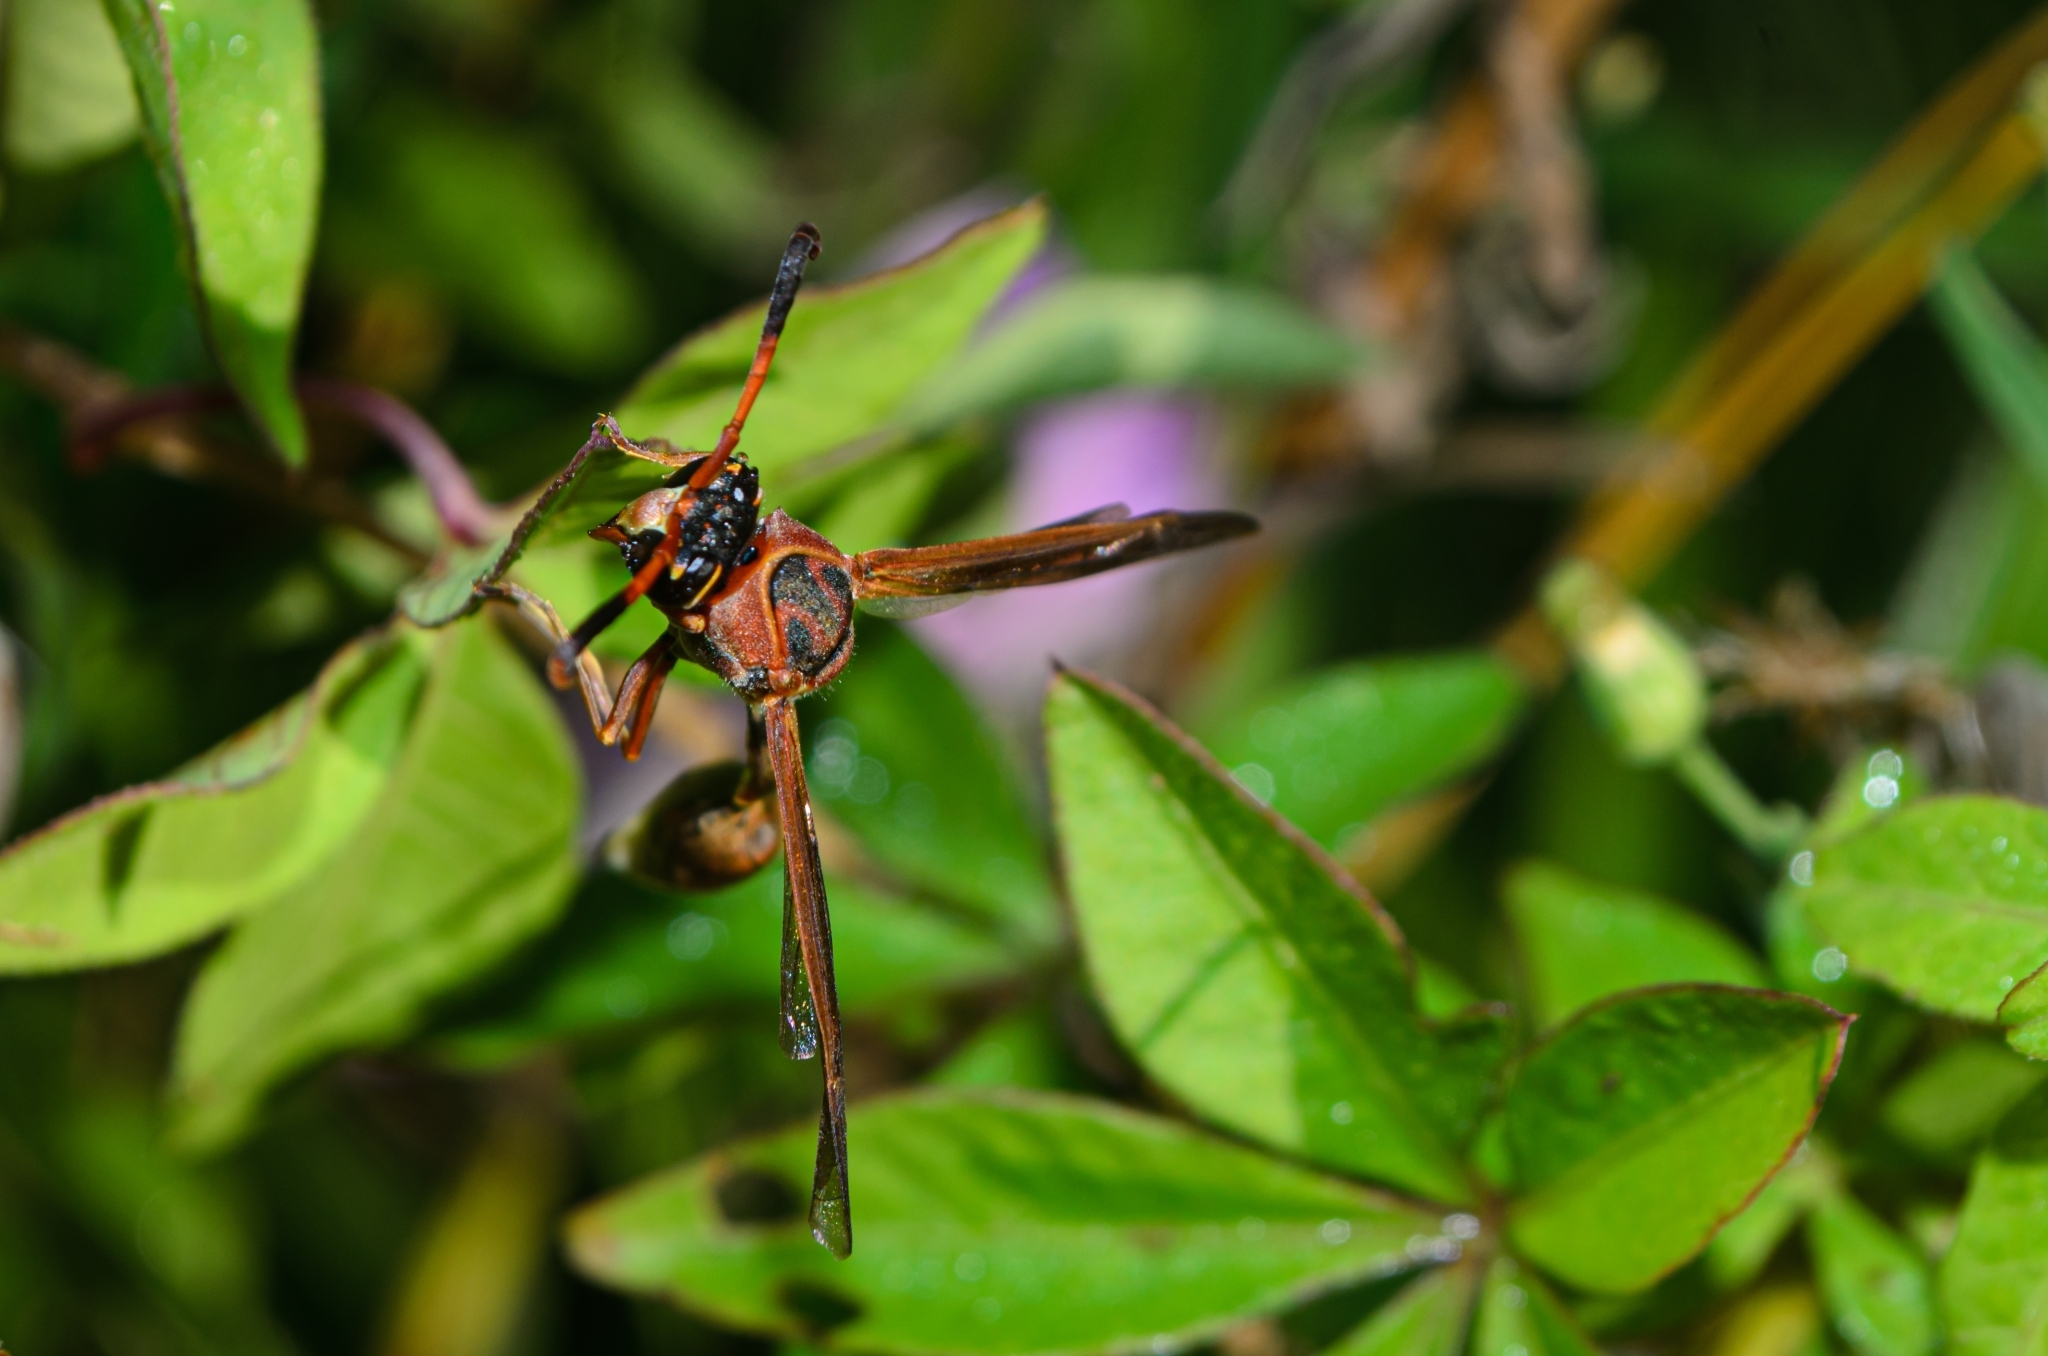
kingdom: Animalia
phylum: Arthropoda
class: Insecta
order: Hymenoptera
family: Eumenidae
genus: Zeta
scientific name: Zeta argillaceum
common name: Potter wasp
